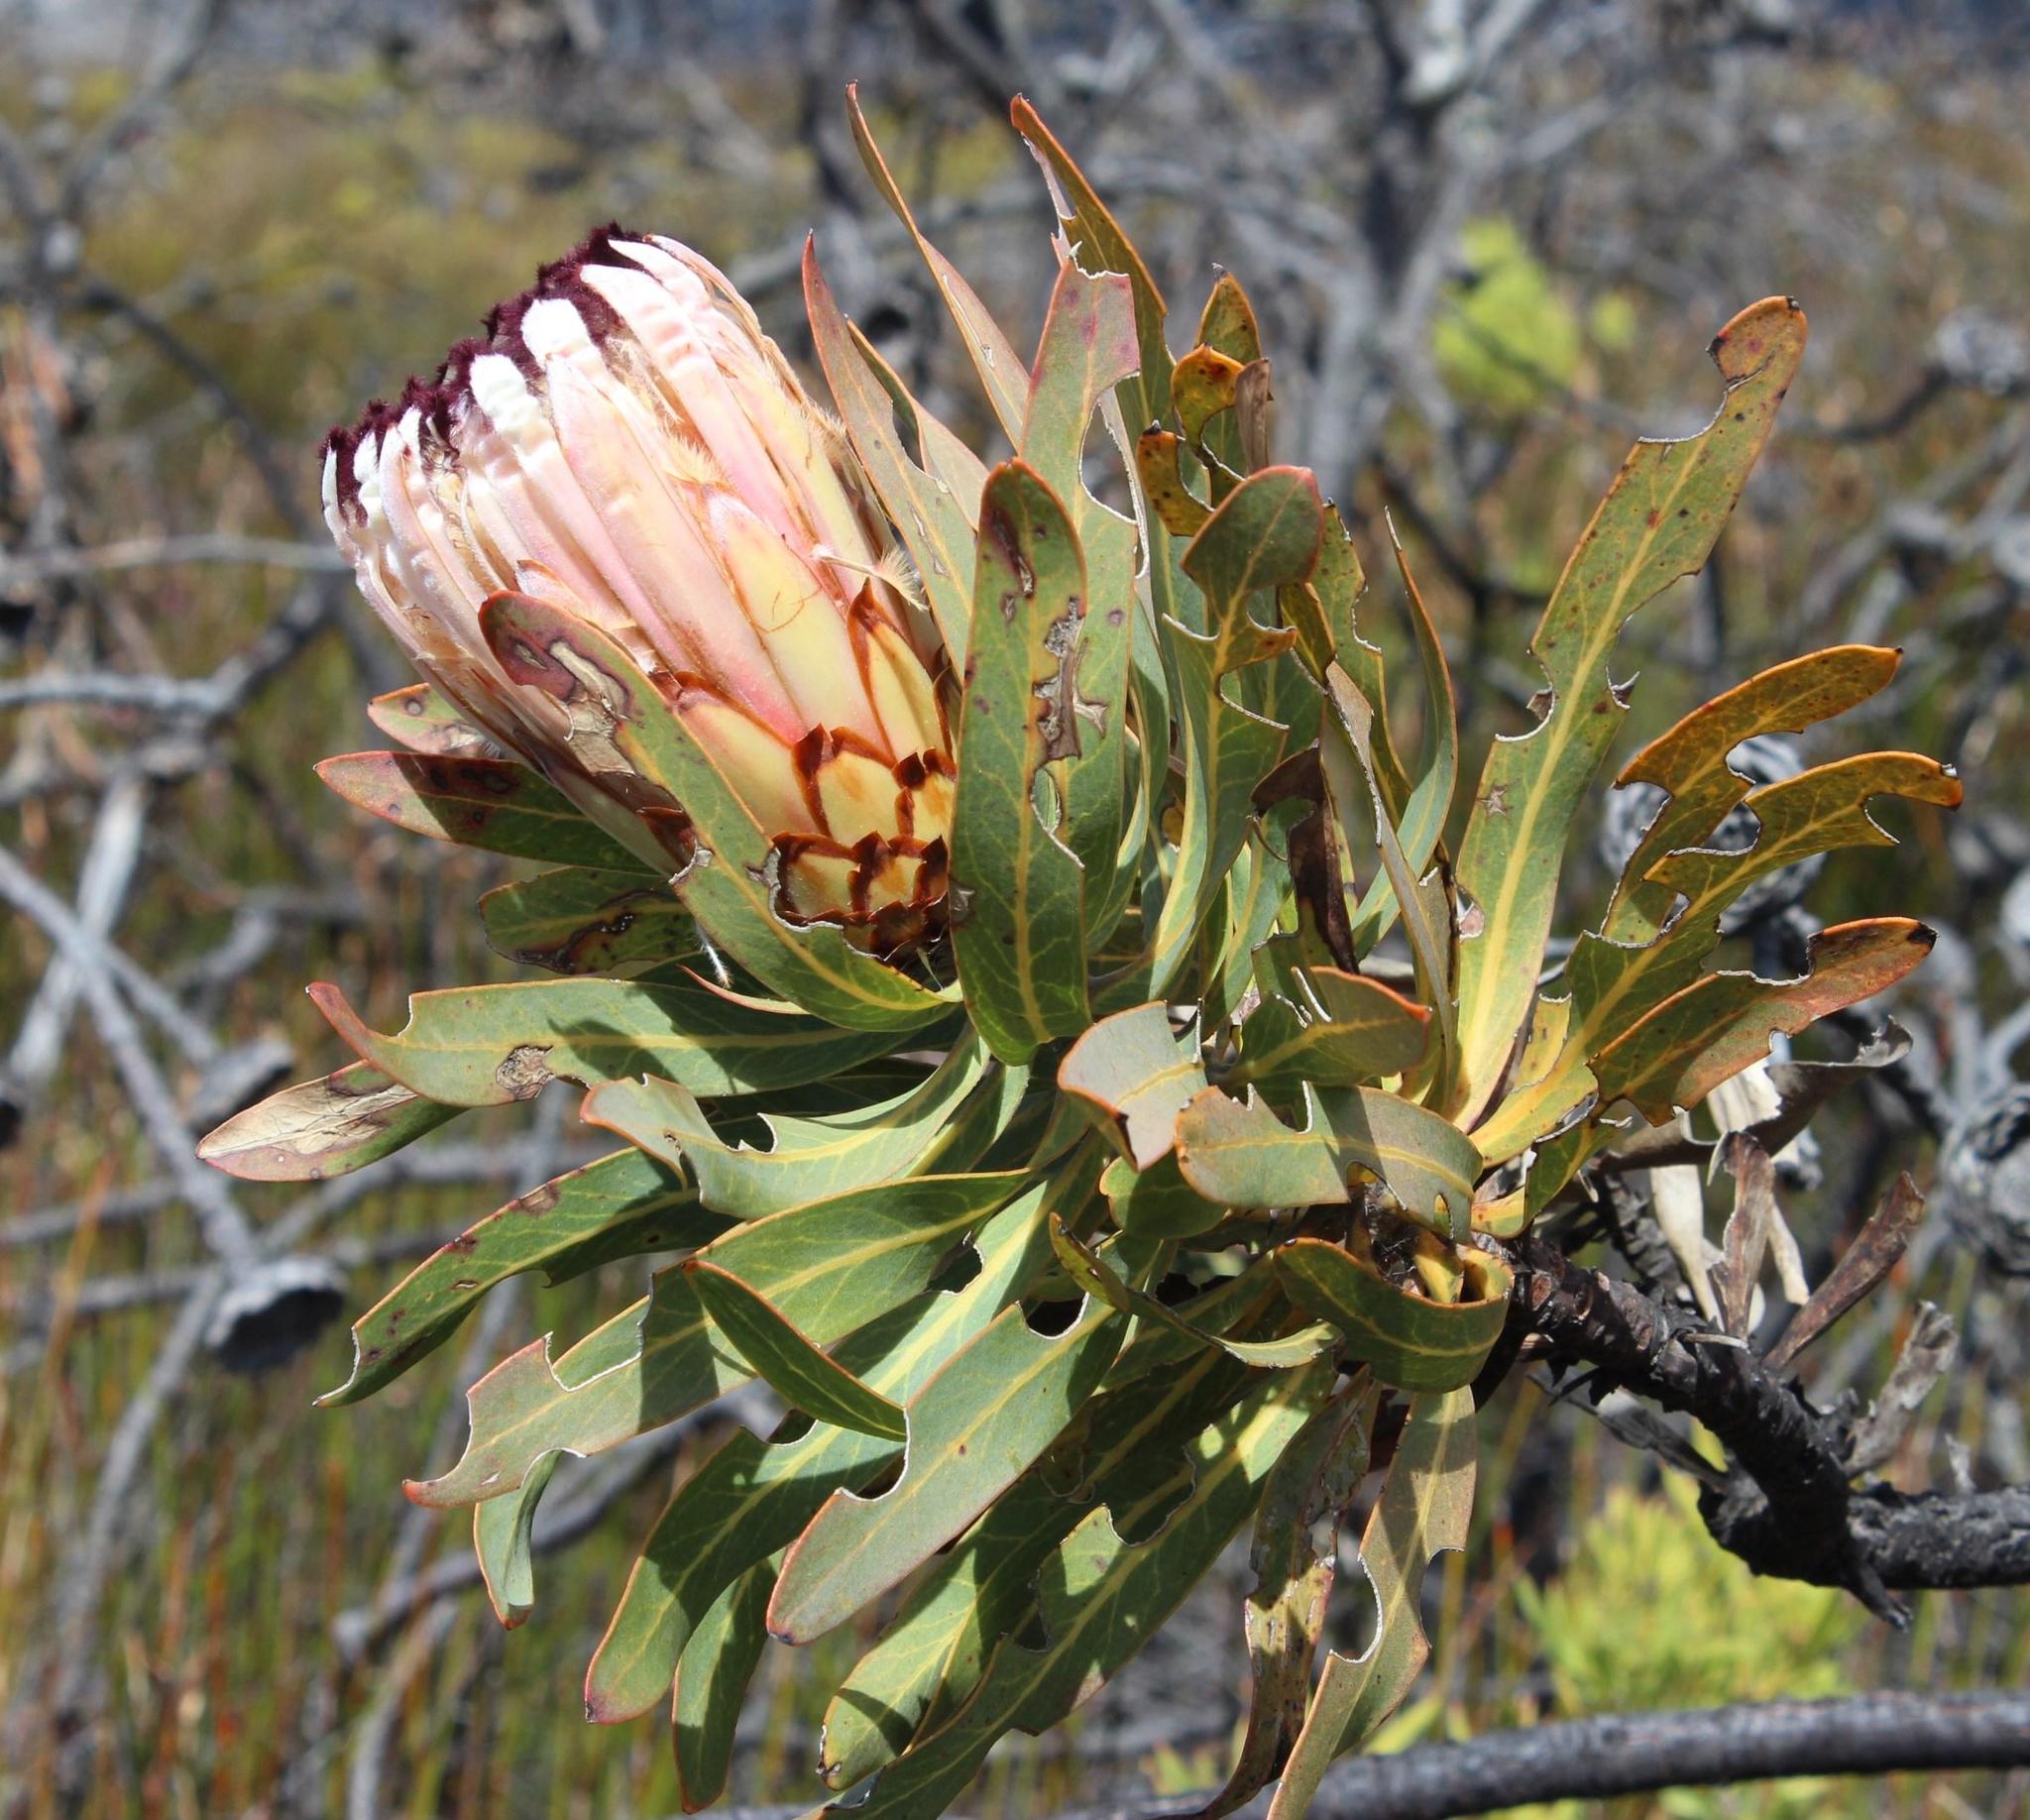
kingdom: Plantae
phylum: Tracheophyta
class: Magnoliopsida
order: Proteales
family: Proteaceae
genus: Protea
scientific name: Protea neriifolia
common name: Blue sugarbush
